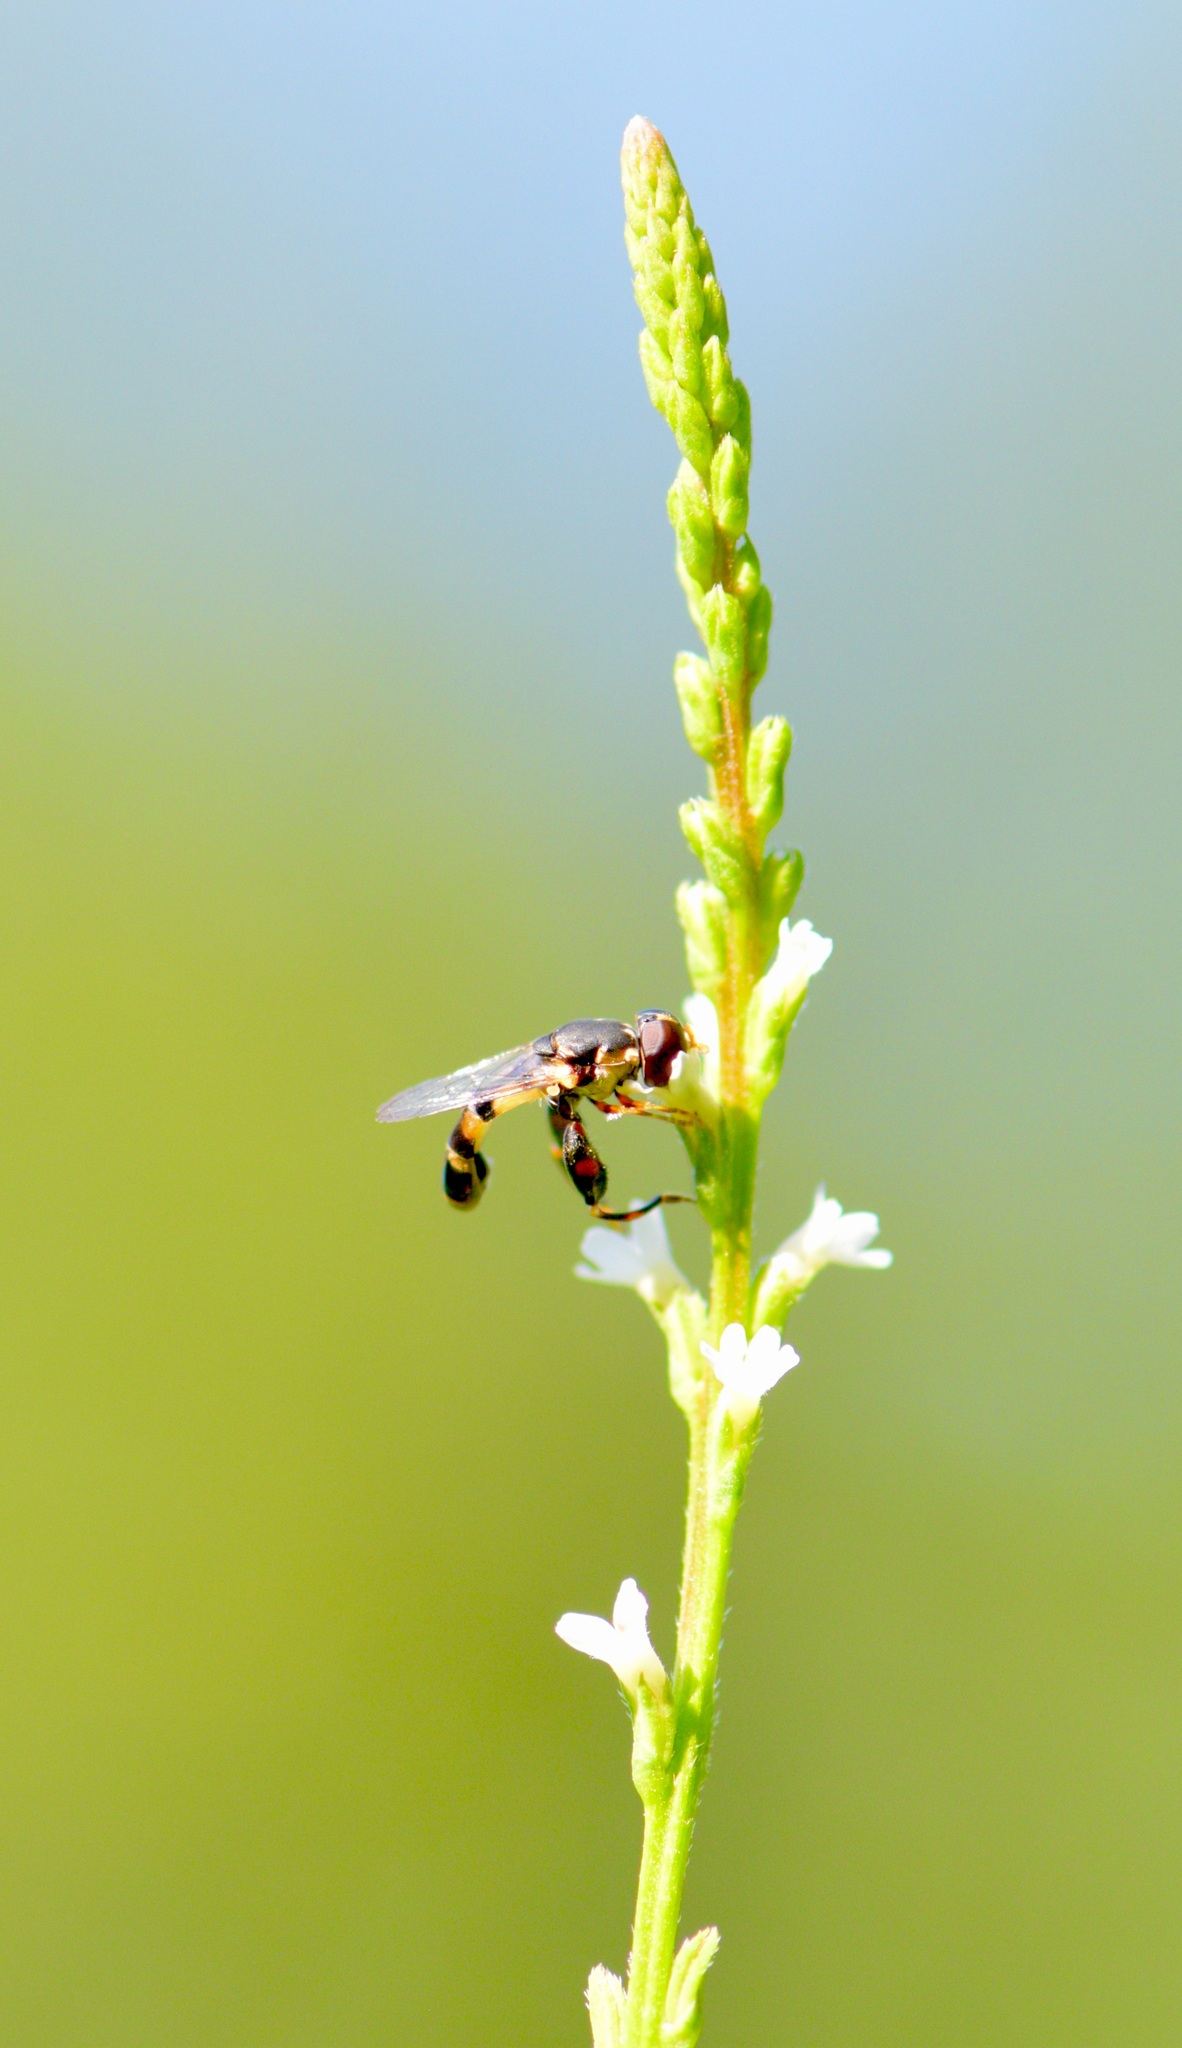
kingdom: Animalia
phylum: Arthropoda
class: Insecta
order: Diptera
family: Syrphidae
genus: Syritta
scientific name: Syritta pipiens
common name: Hover fly
